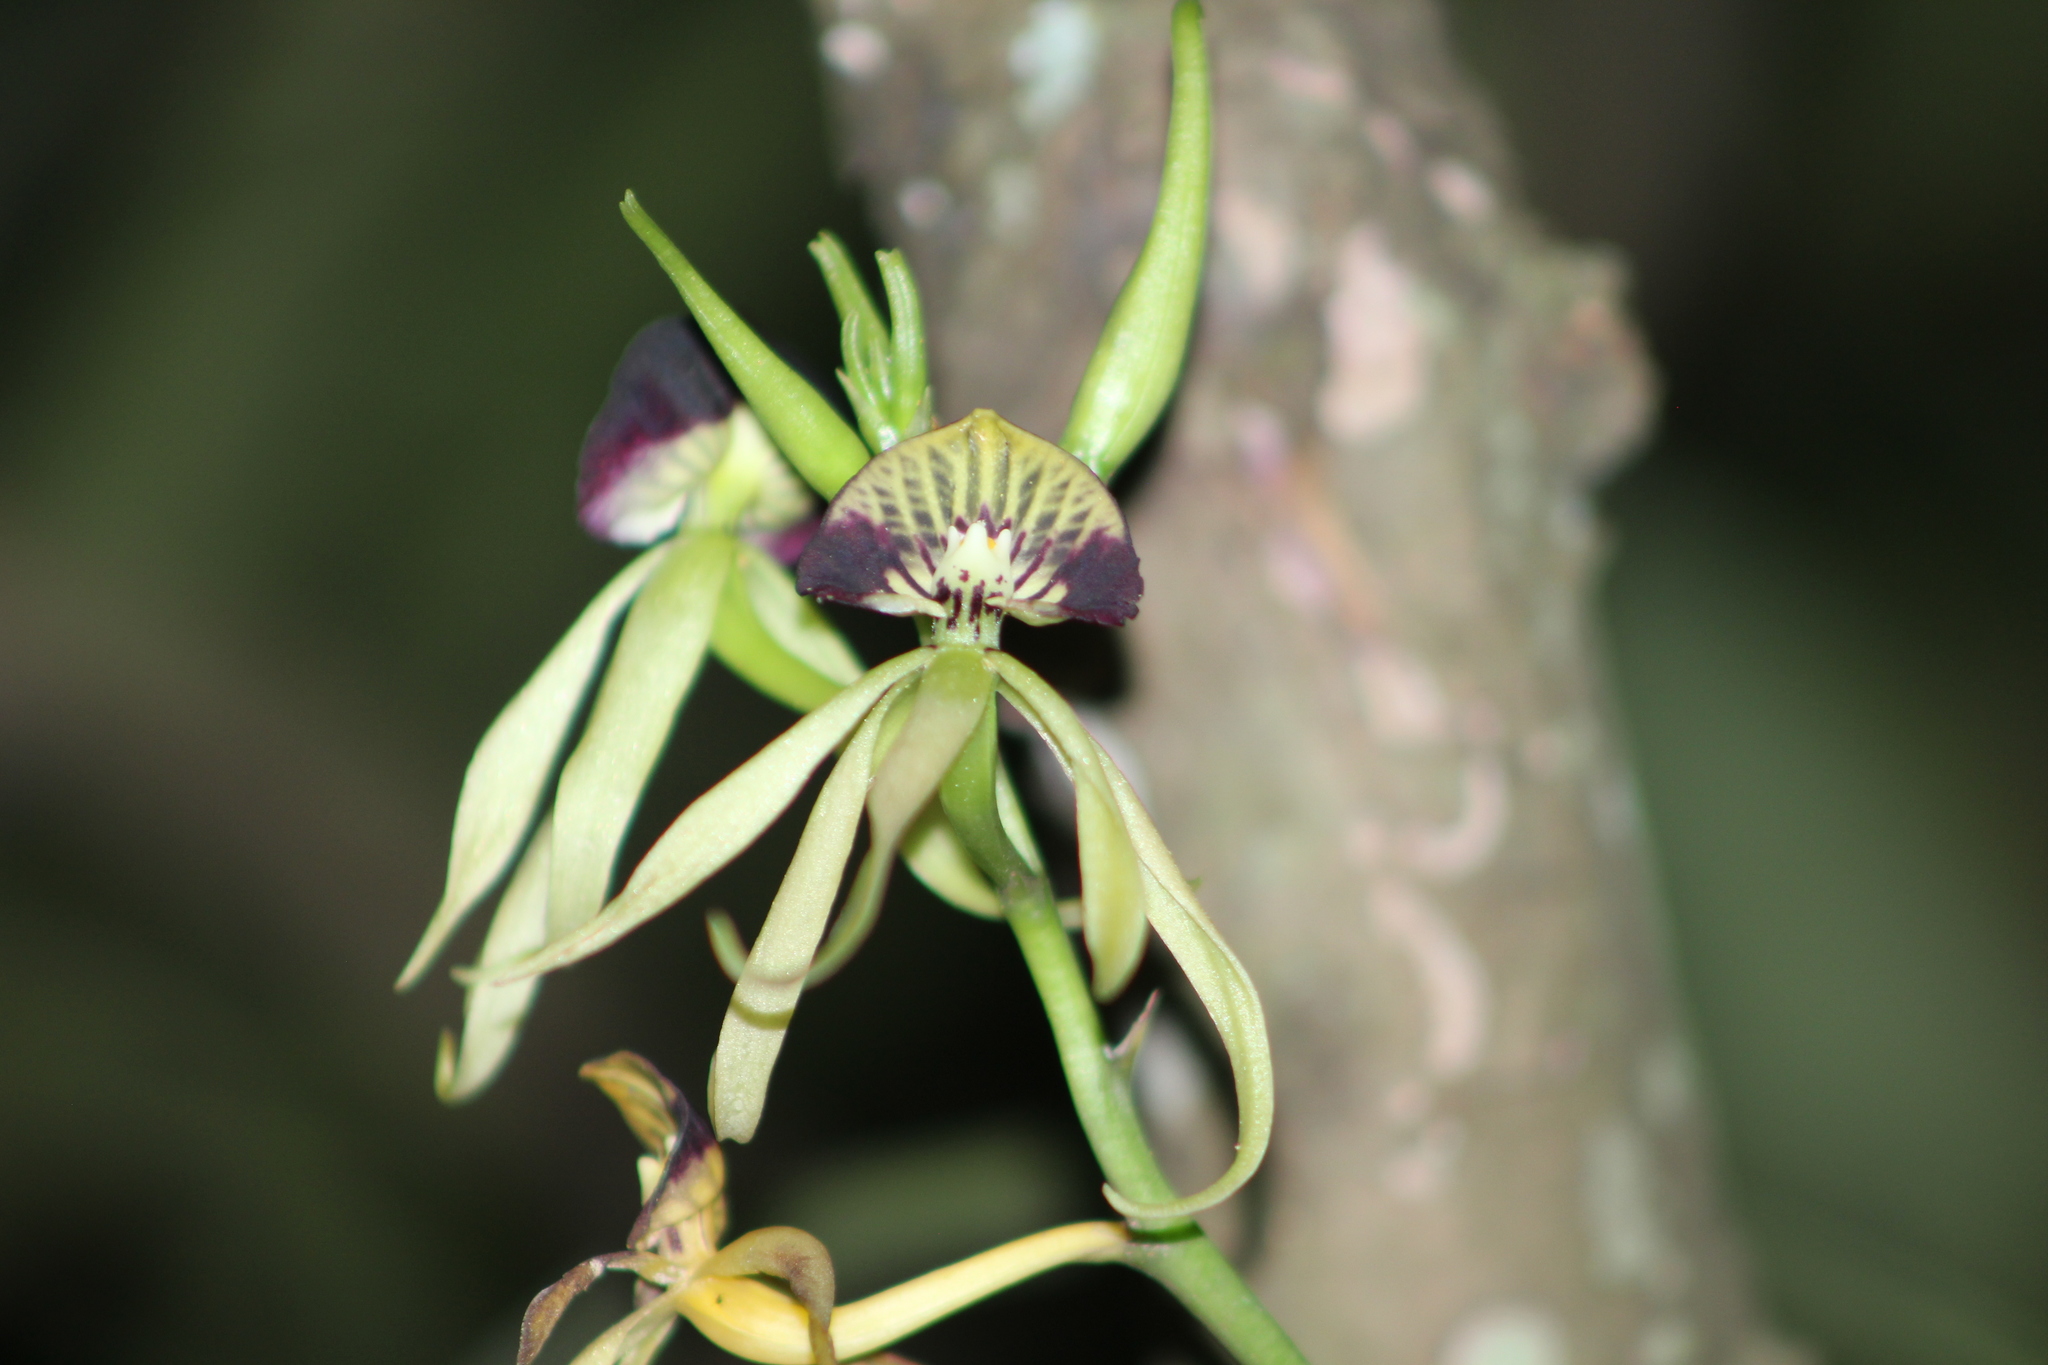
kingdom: Plantae
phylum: Tracheophyta
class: Liliopsida
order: Asparagales
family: Orchidaceae
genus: Prosthechea
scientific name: Prosthechea cochleata
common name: Clamshell orchid
